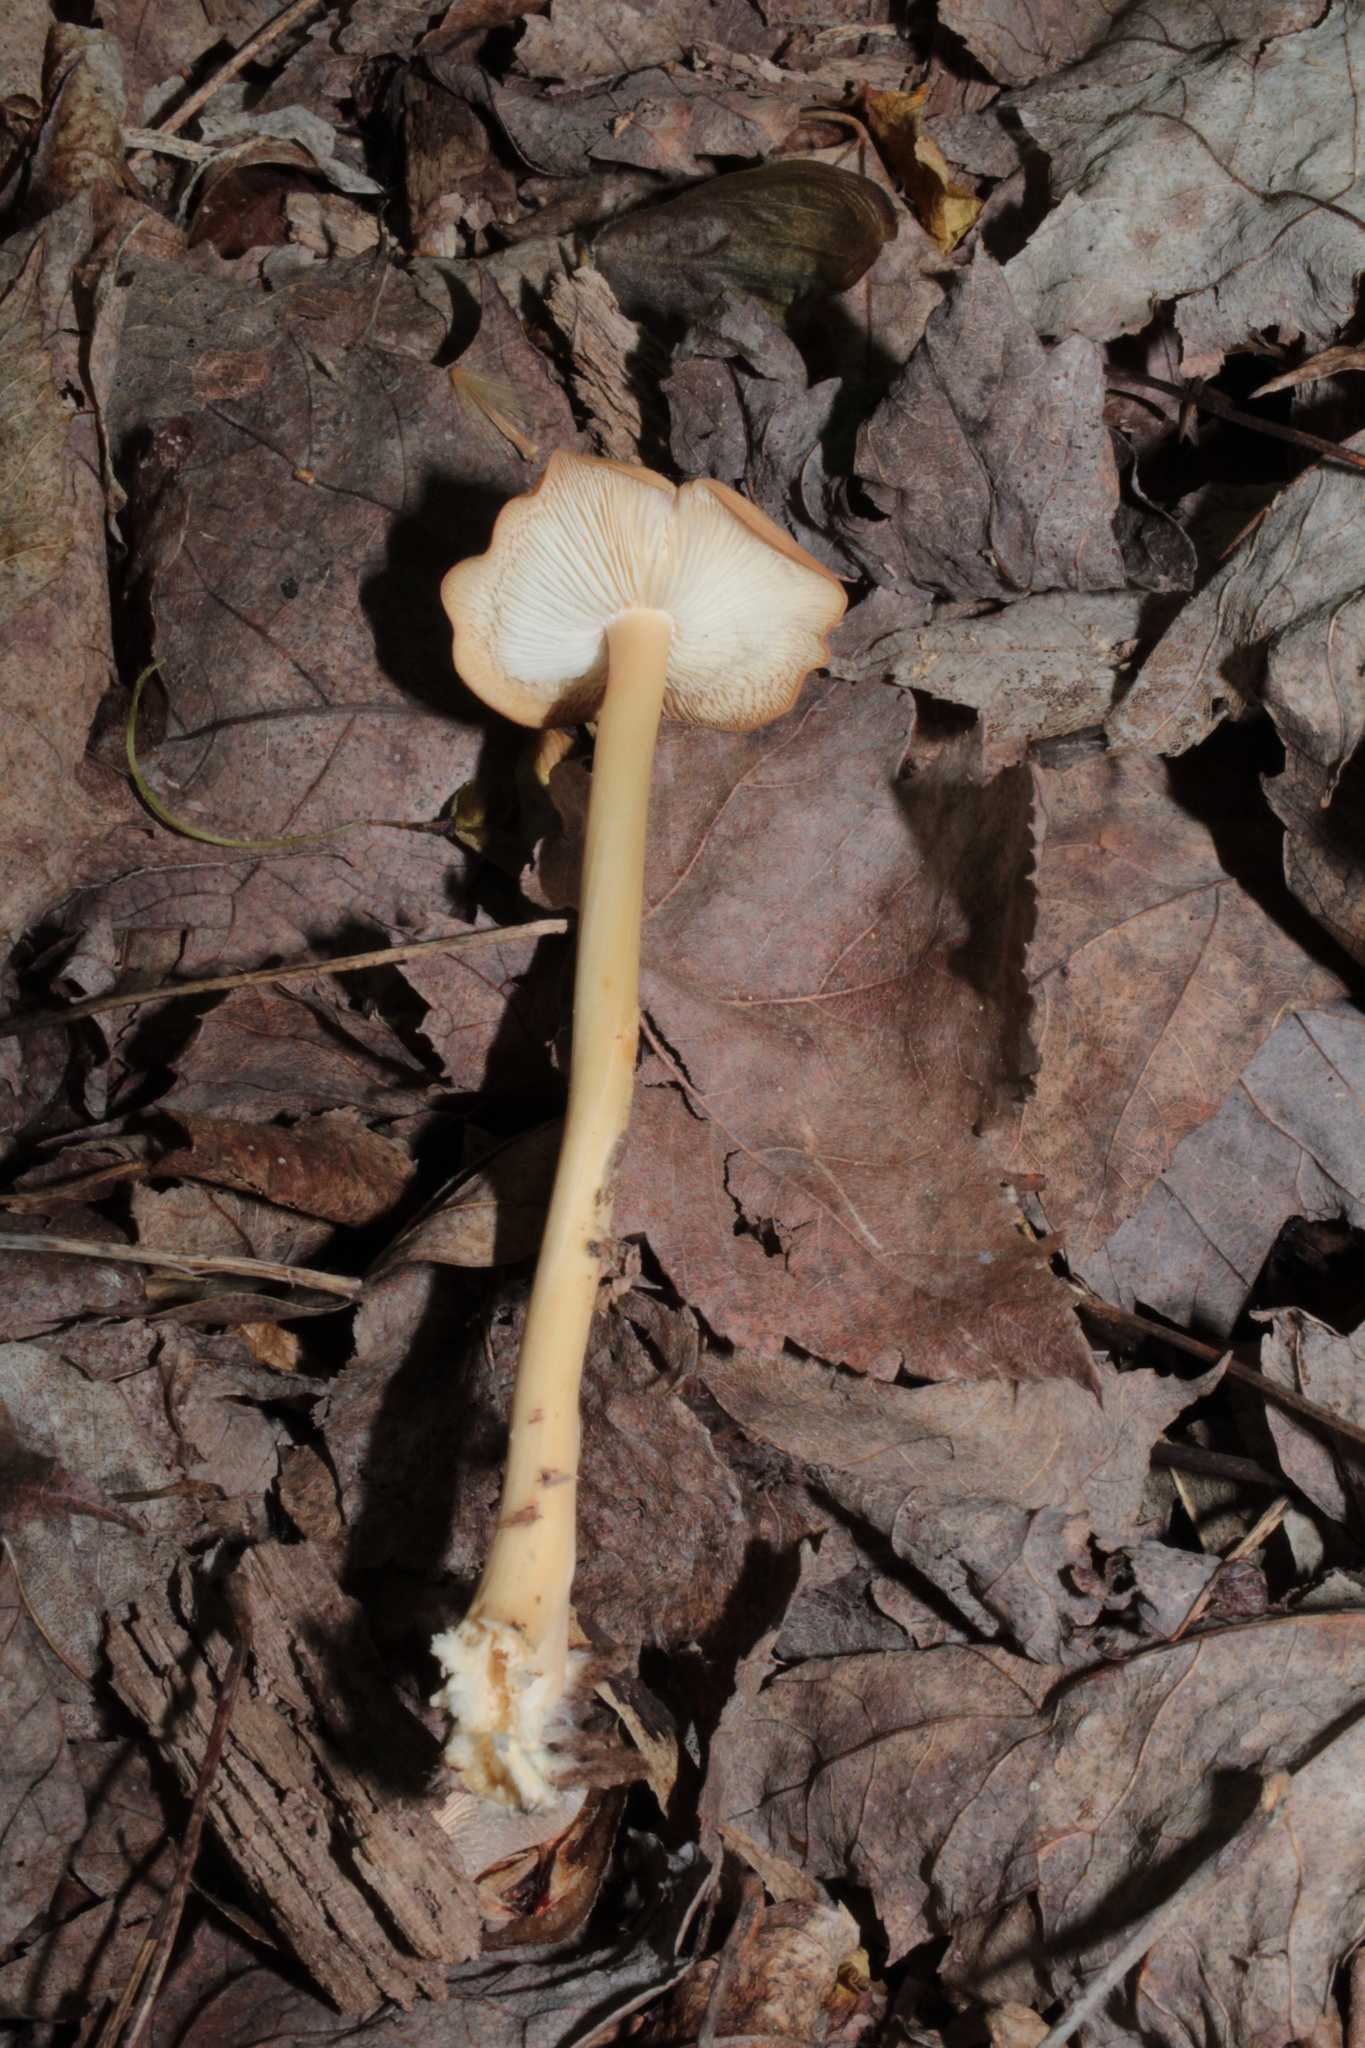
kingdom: Fungi
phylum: Basidiomycota
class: Agaricomycetes
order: Agaricales
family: Omphalotaceae
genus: Gymnopus
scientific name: Gymnopus subsulphureus
